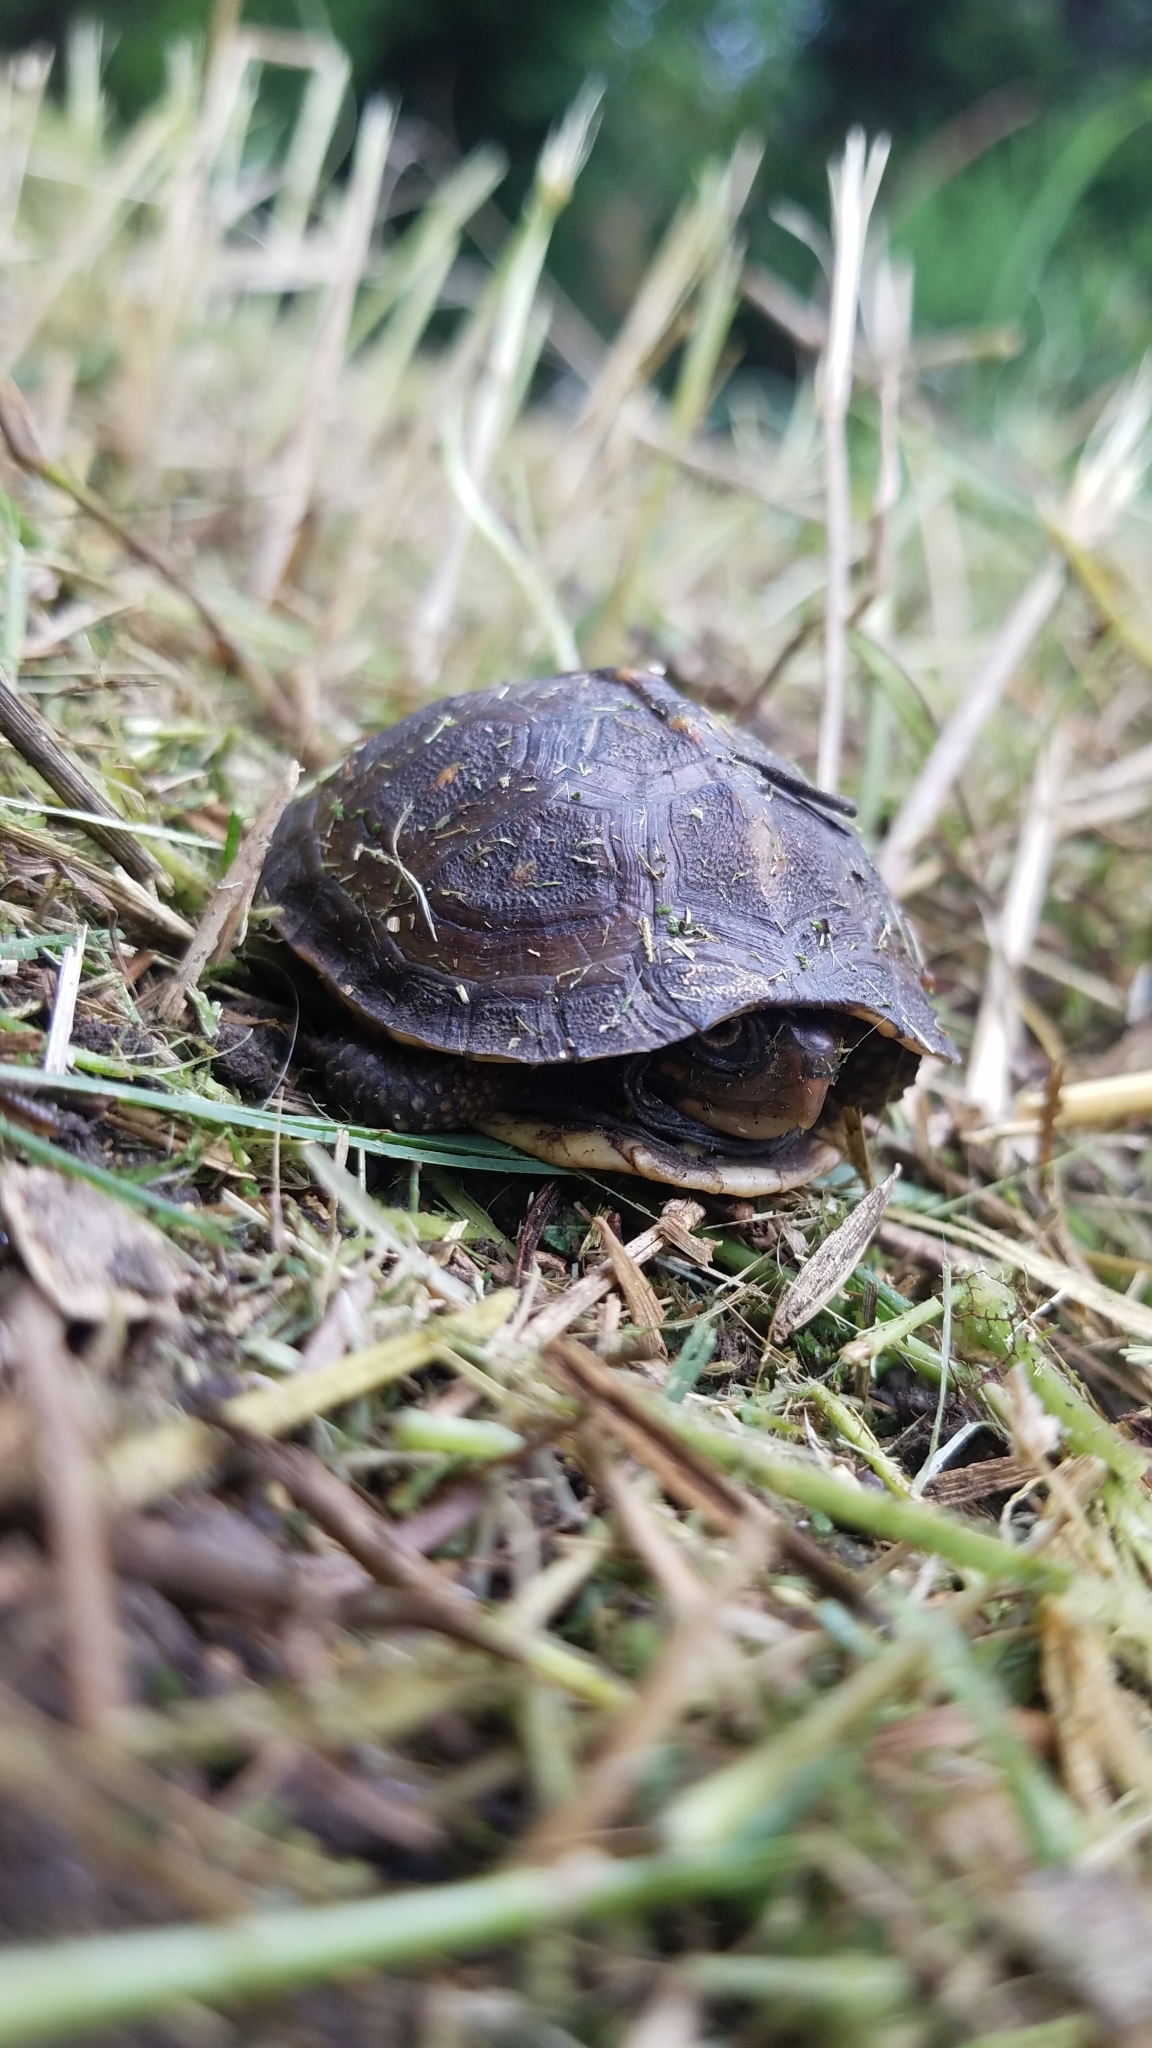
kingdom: Animalia
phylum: Chordata
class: Testudines
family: Emydidae
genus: Terrapene
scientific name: Terrapene carolina
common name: Common box turtle
